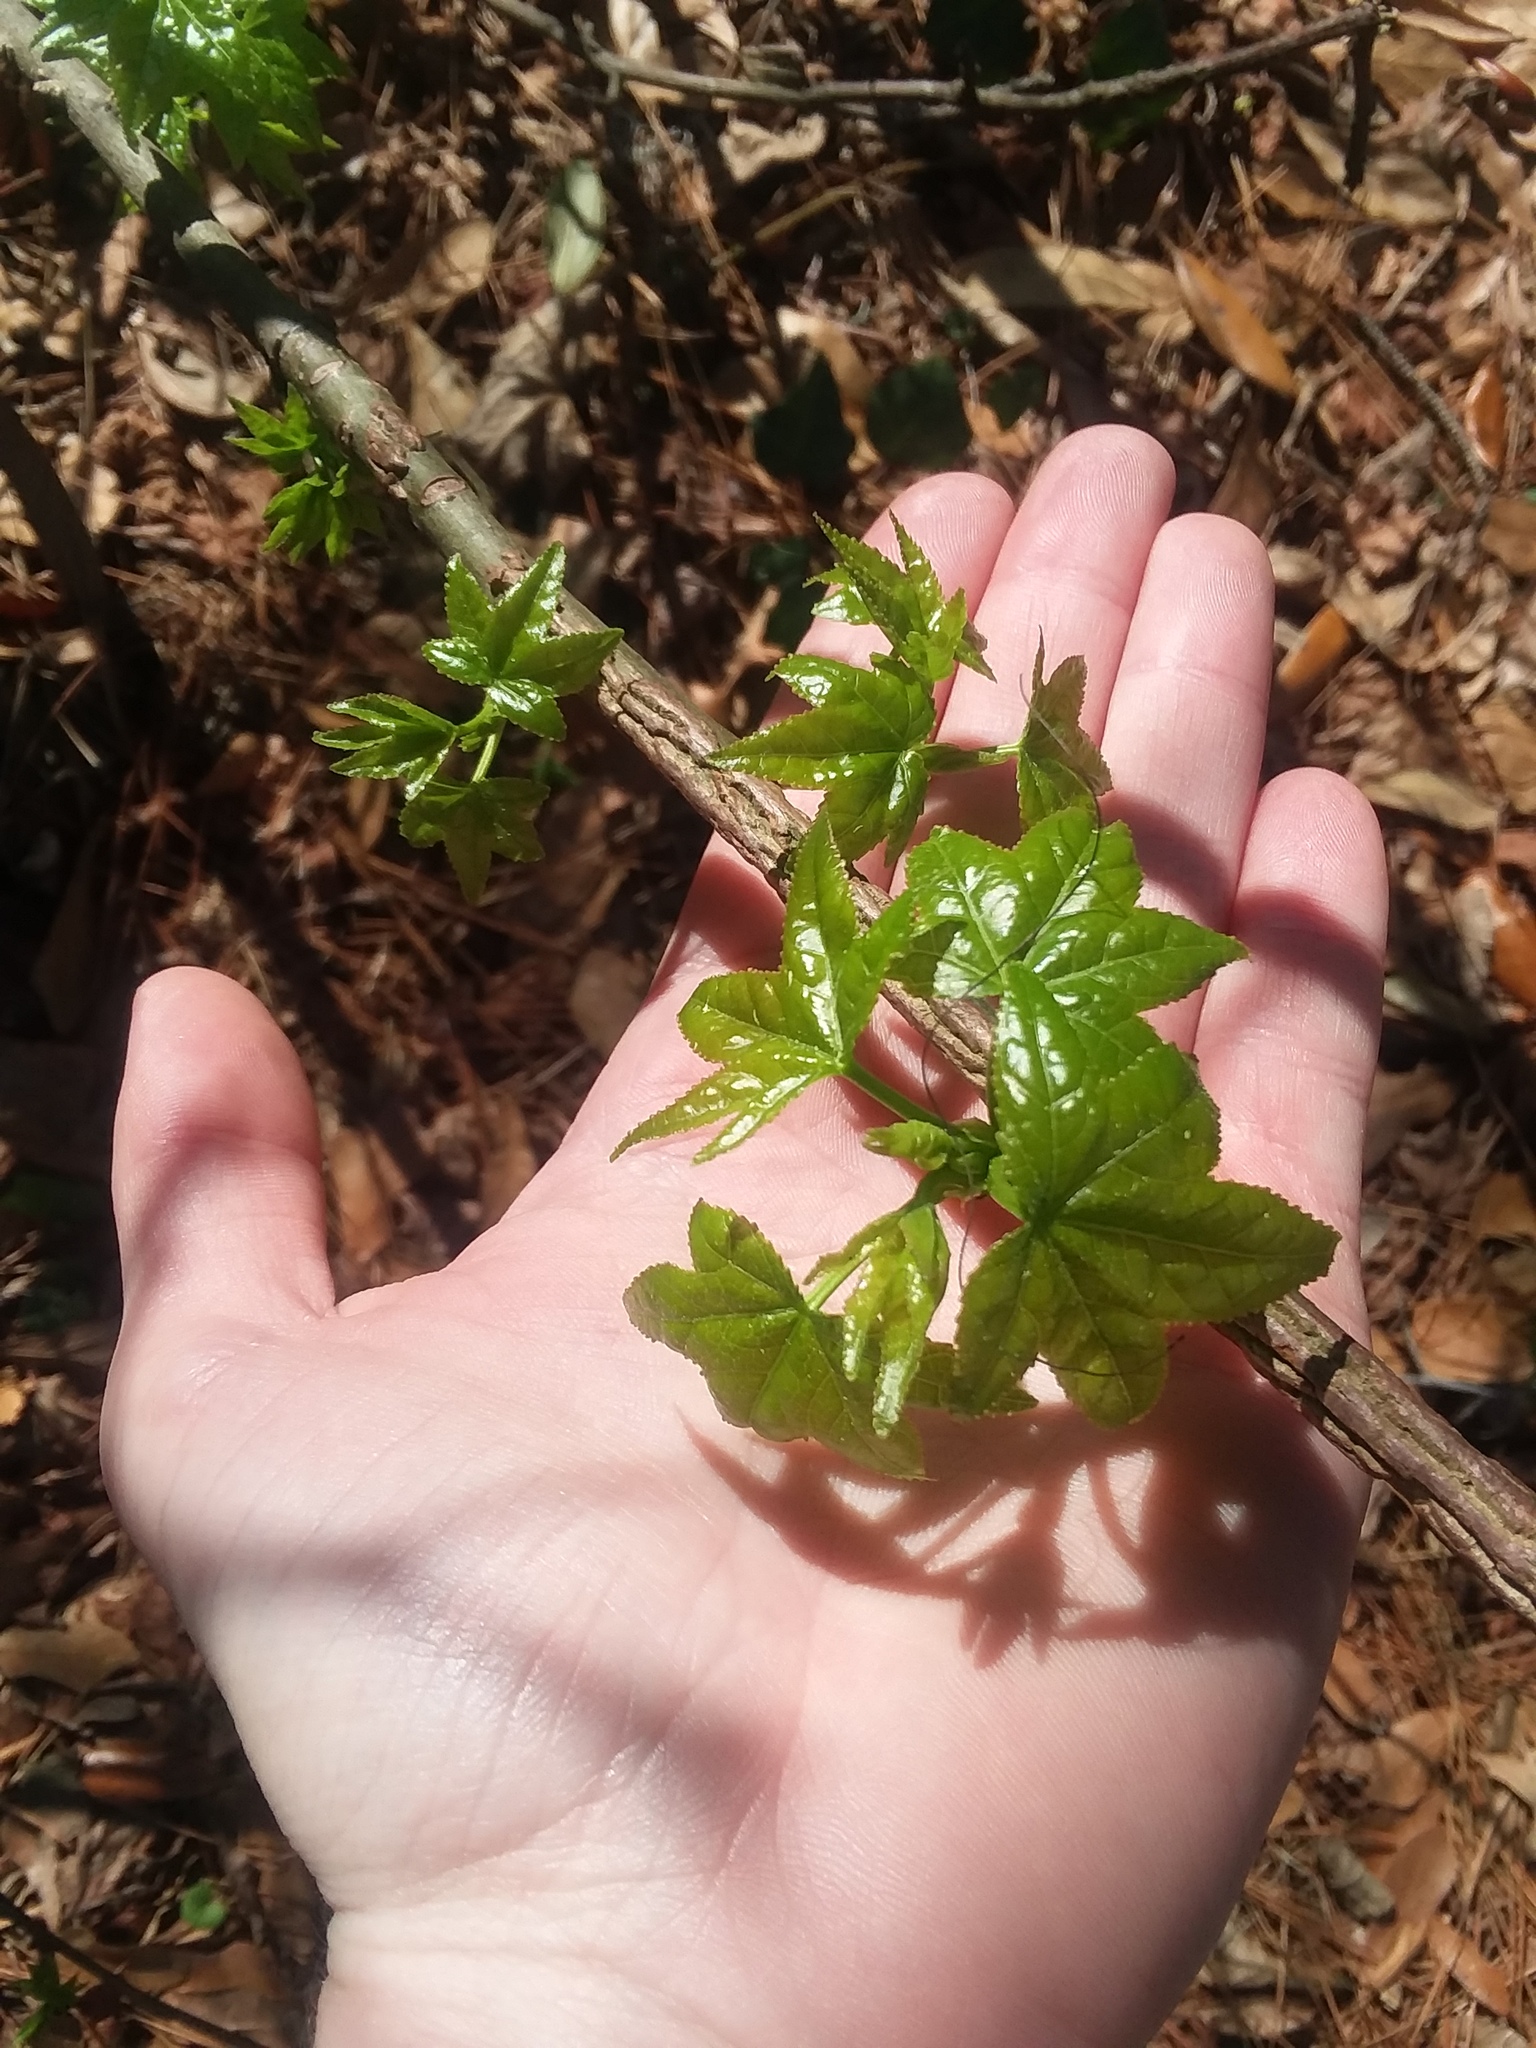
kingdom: Plantae
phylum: Tracheophyta
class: Magnoliopsida
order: Saxifragales
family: Altingiaceae
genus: Liquidambar
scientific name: Liquidambar styraciflua
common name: Sweet gum
